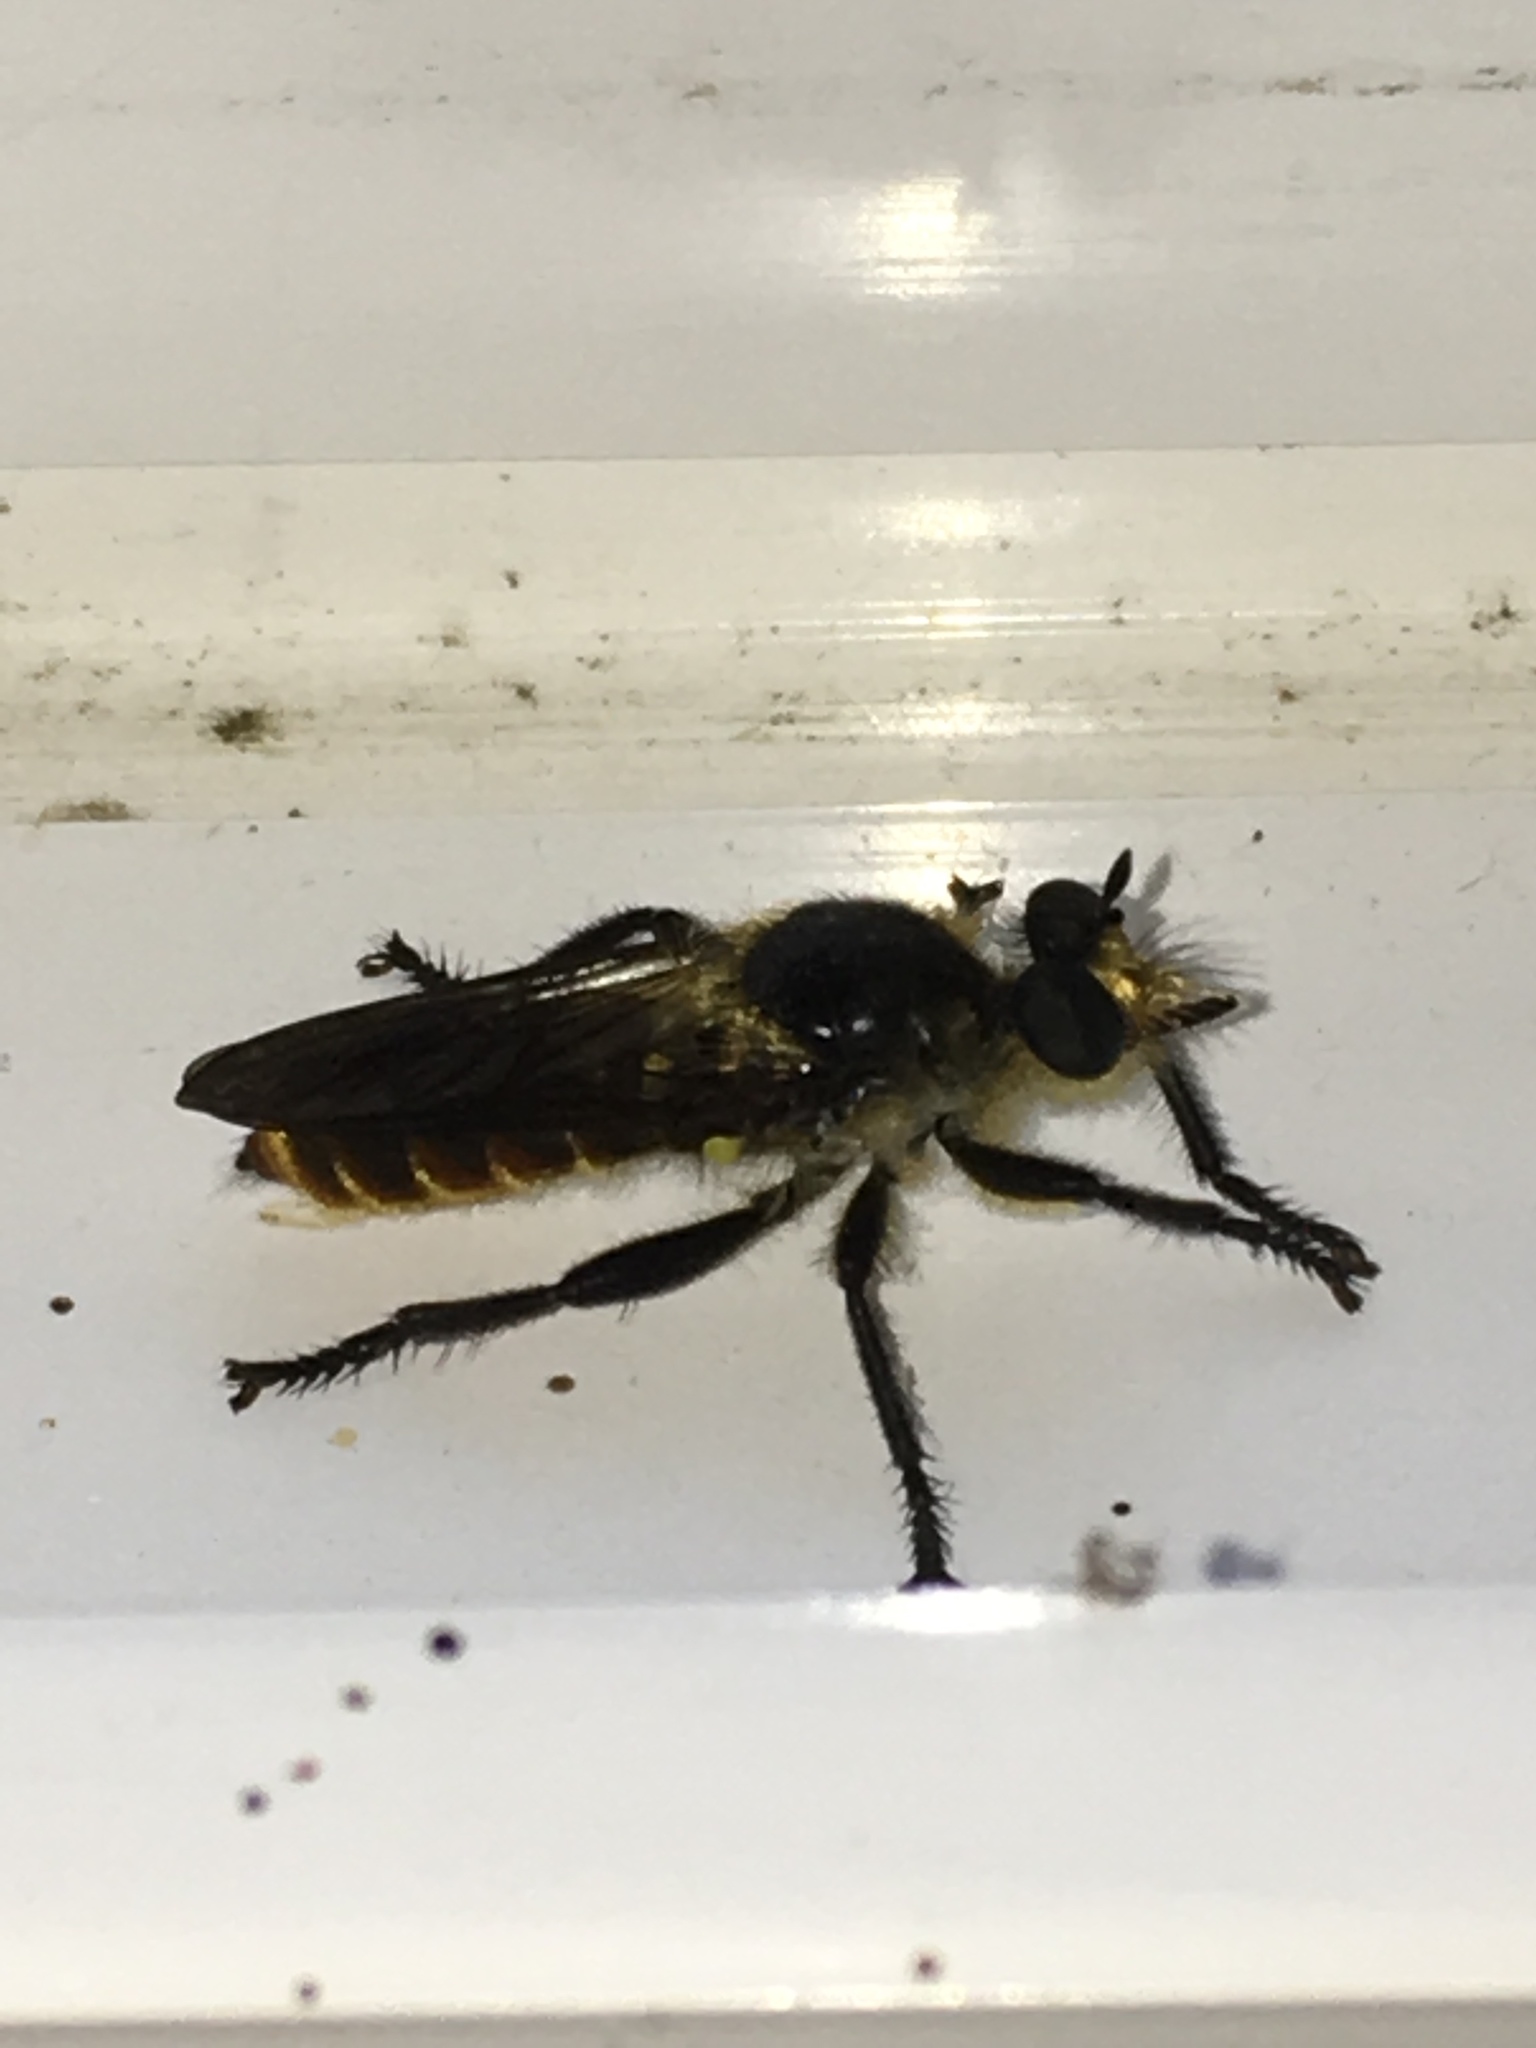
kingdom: Animalia
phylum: Arthropoda
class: Insecta
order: Diptera
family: Asilidae
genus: Laphria
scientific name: Laphria ventralis
